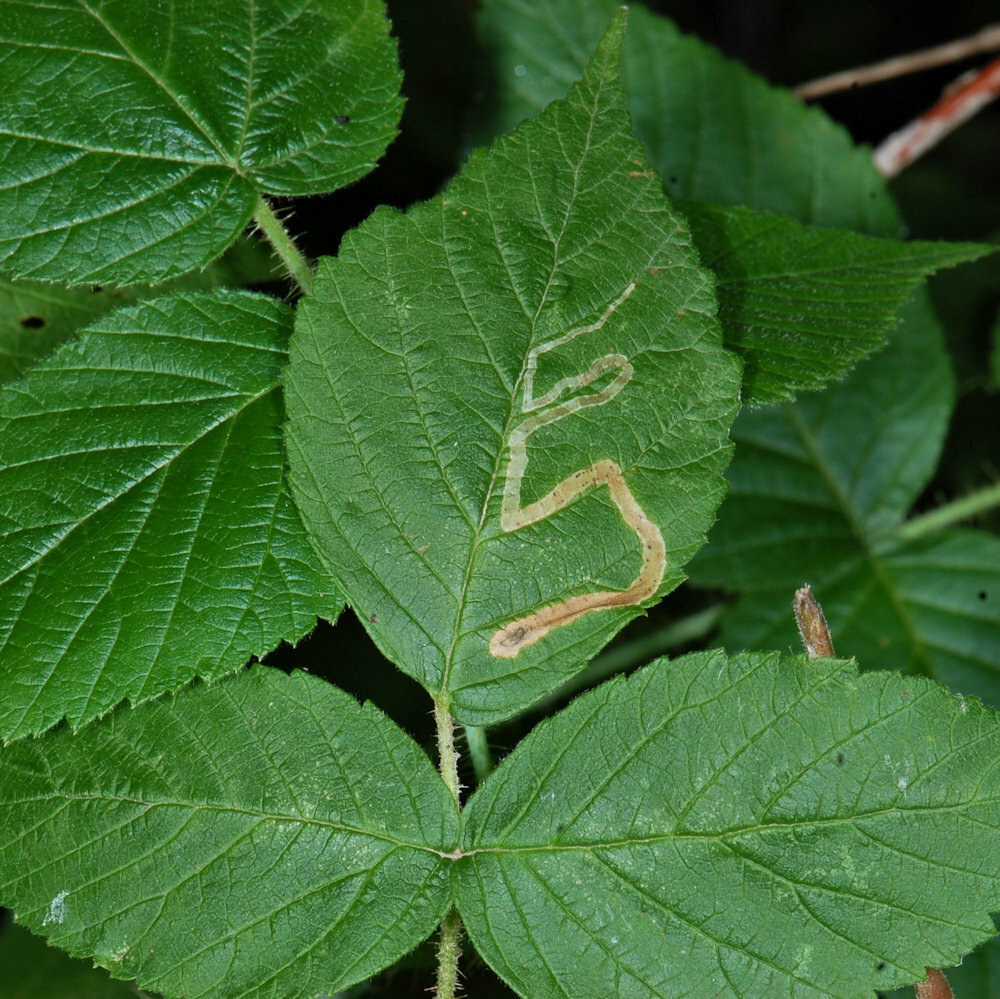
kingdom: Animalia
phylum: Arthropoda
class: Insecta
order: Diptera
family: Agromyzidae
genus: Agromyza
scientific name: Agromyza vockerothi
